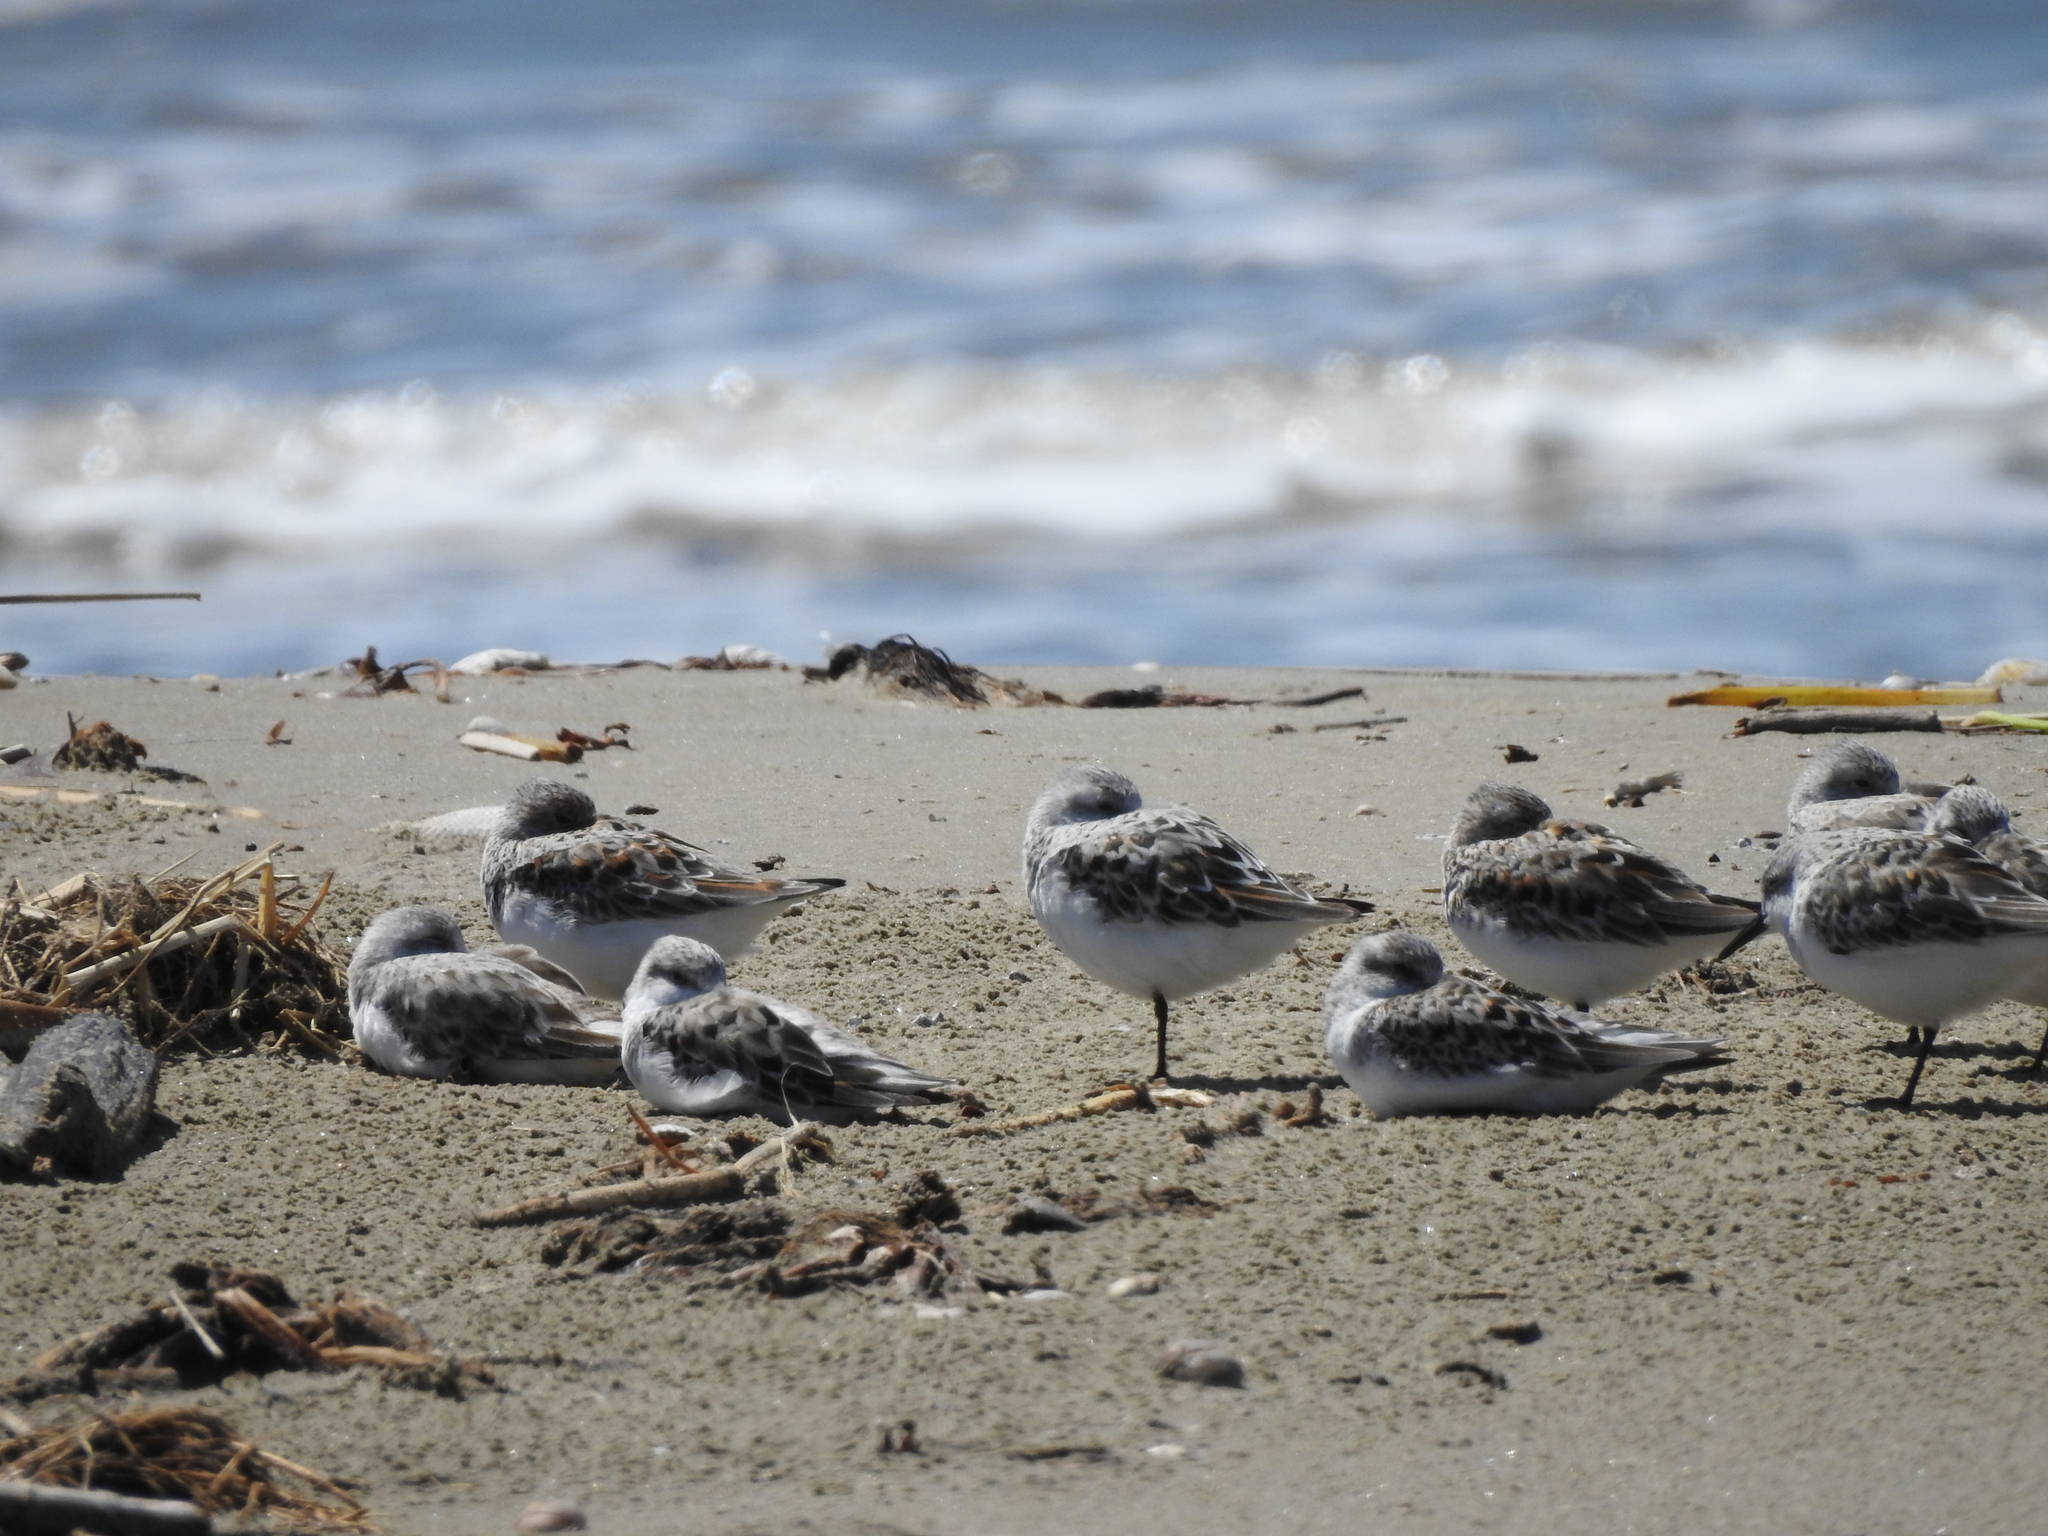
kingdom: Animalia
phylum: Chordata
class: Aves
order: Charadriiformes
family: Scolopacidae
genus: Calidris
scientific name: Calidris alba
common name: Sanderling
